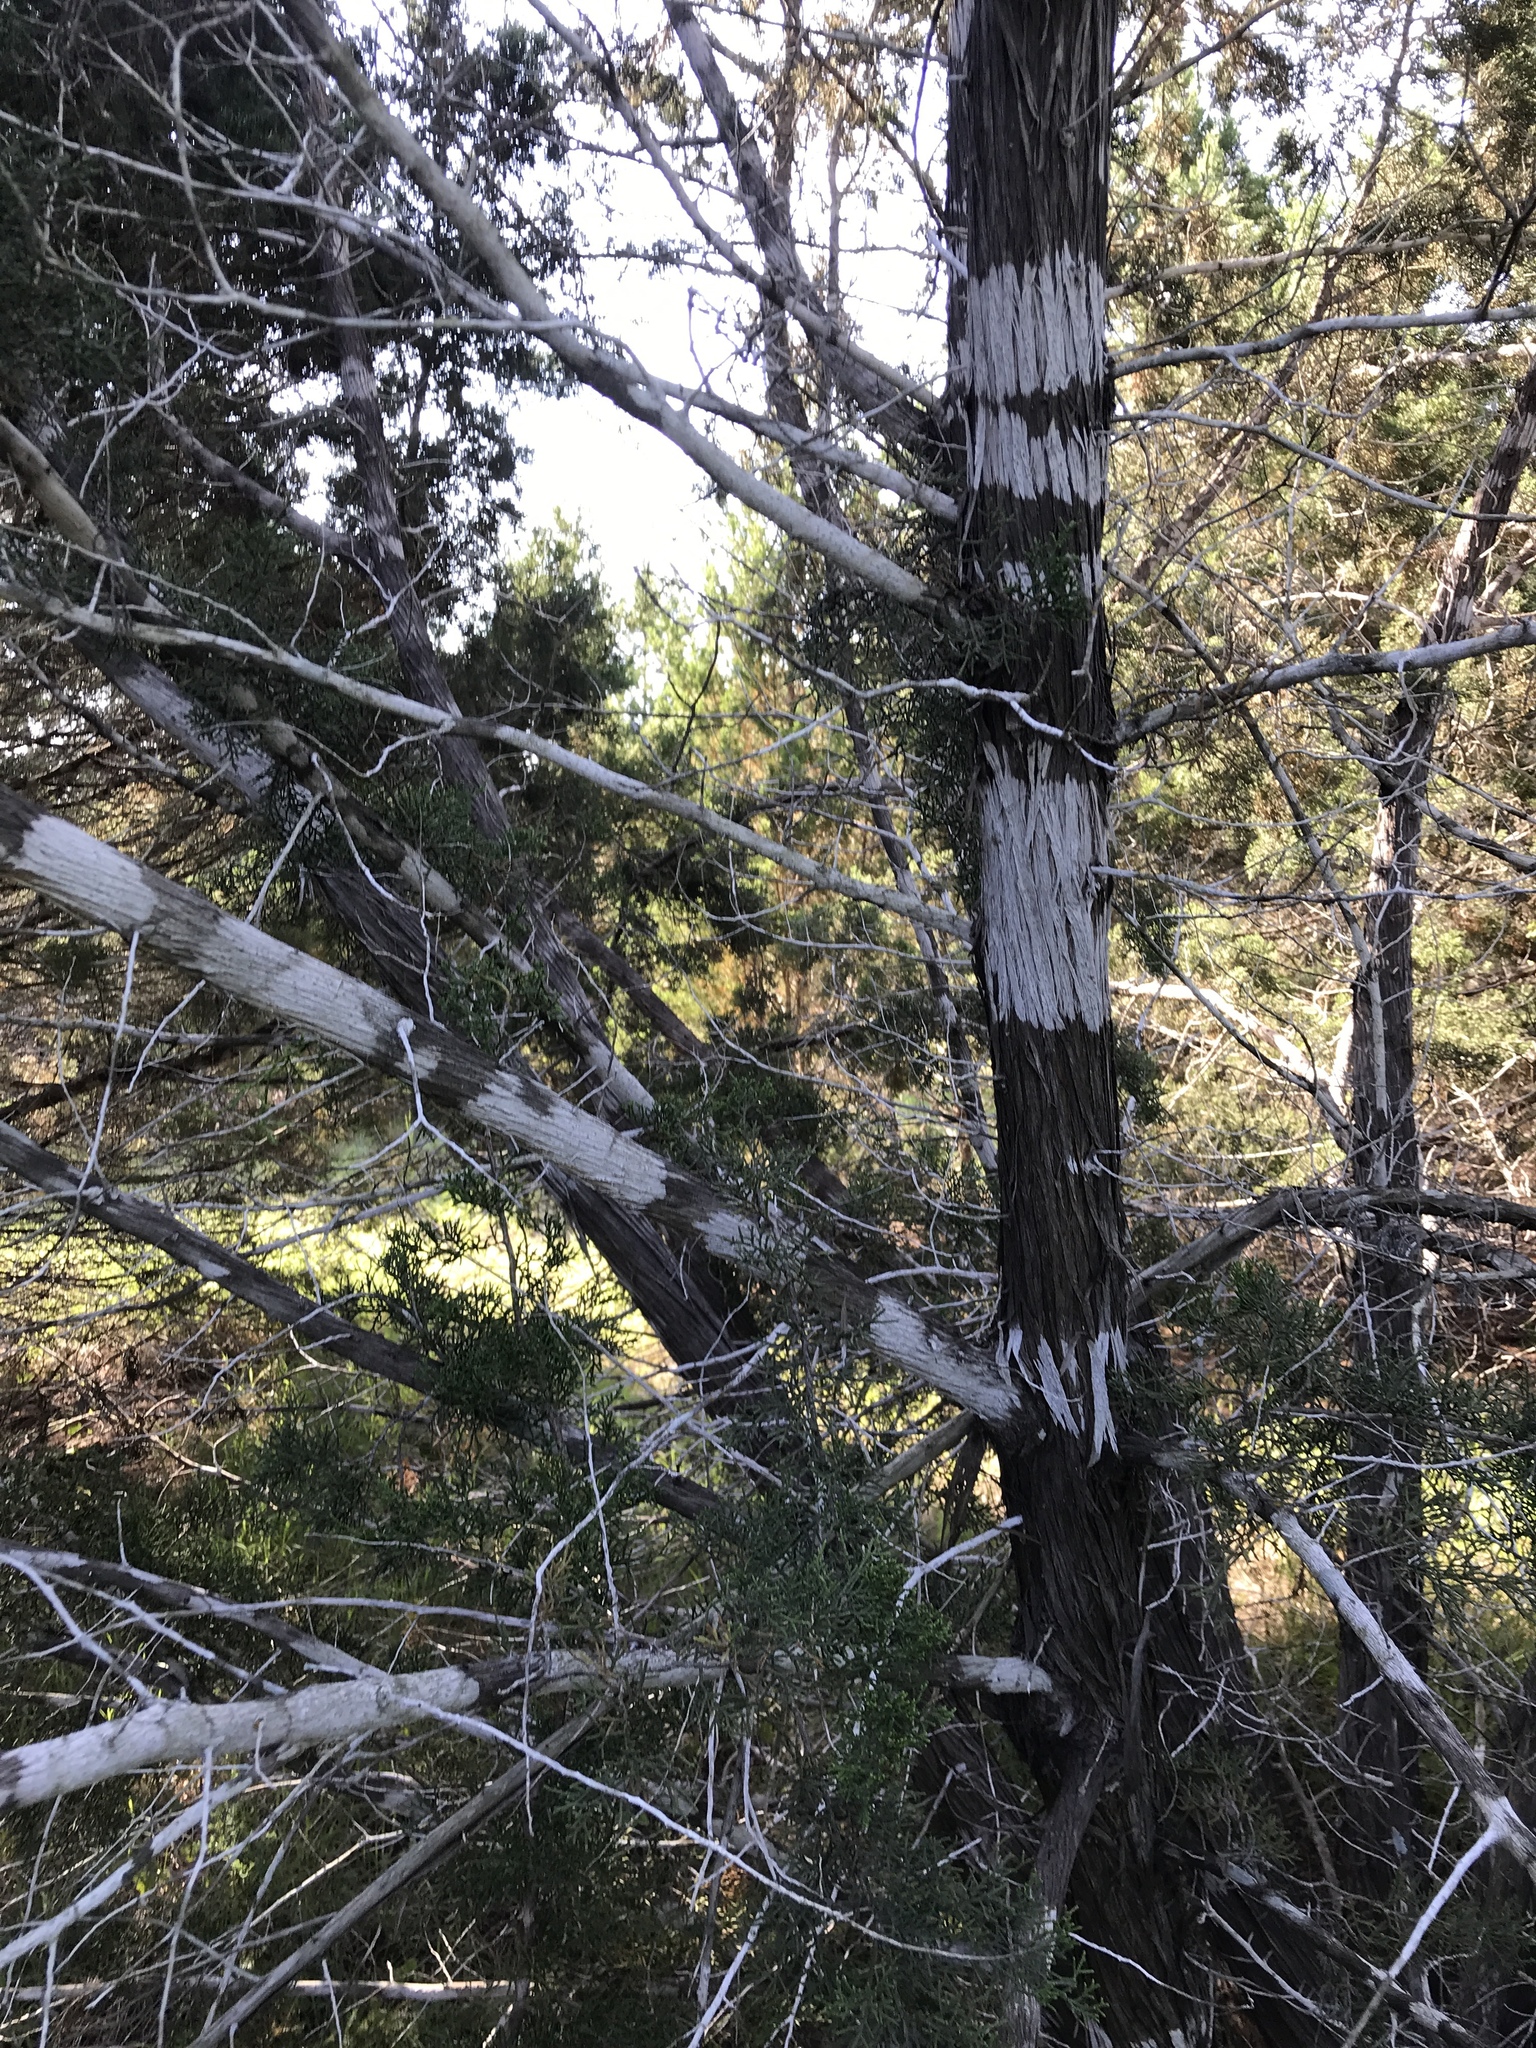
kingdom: Fungi
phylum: Ascomycota
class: Lecanoromycetes
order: Ostropales
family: Stictidaceae
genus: Robergea
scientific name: Robergea
